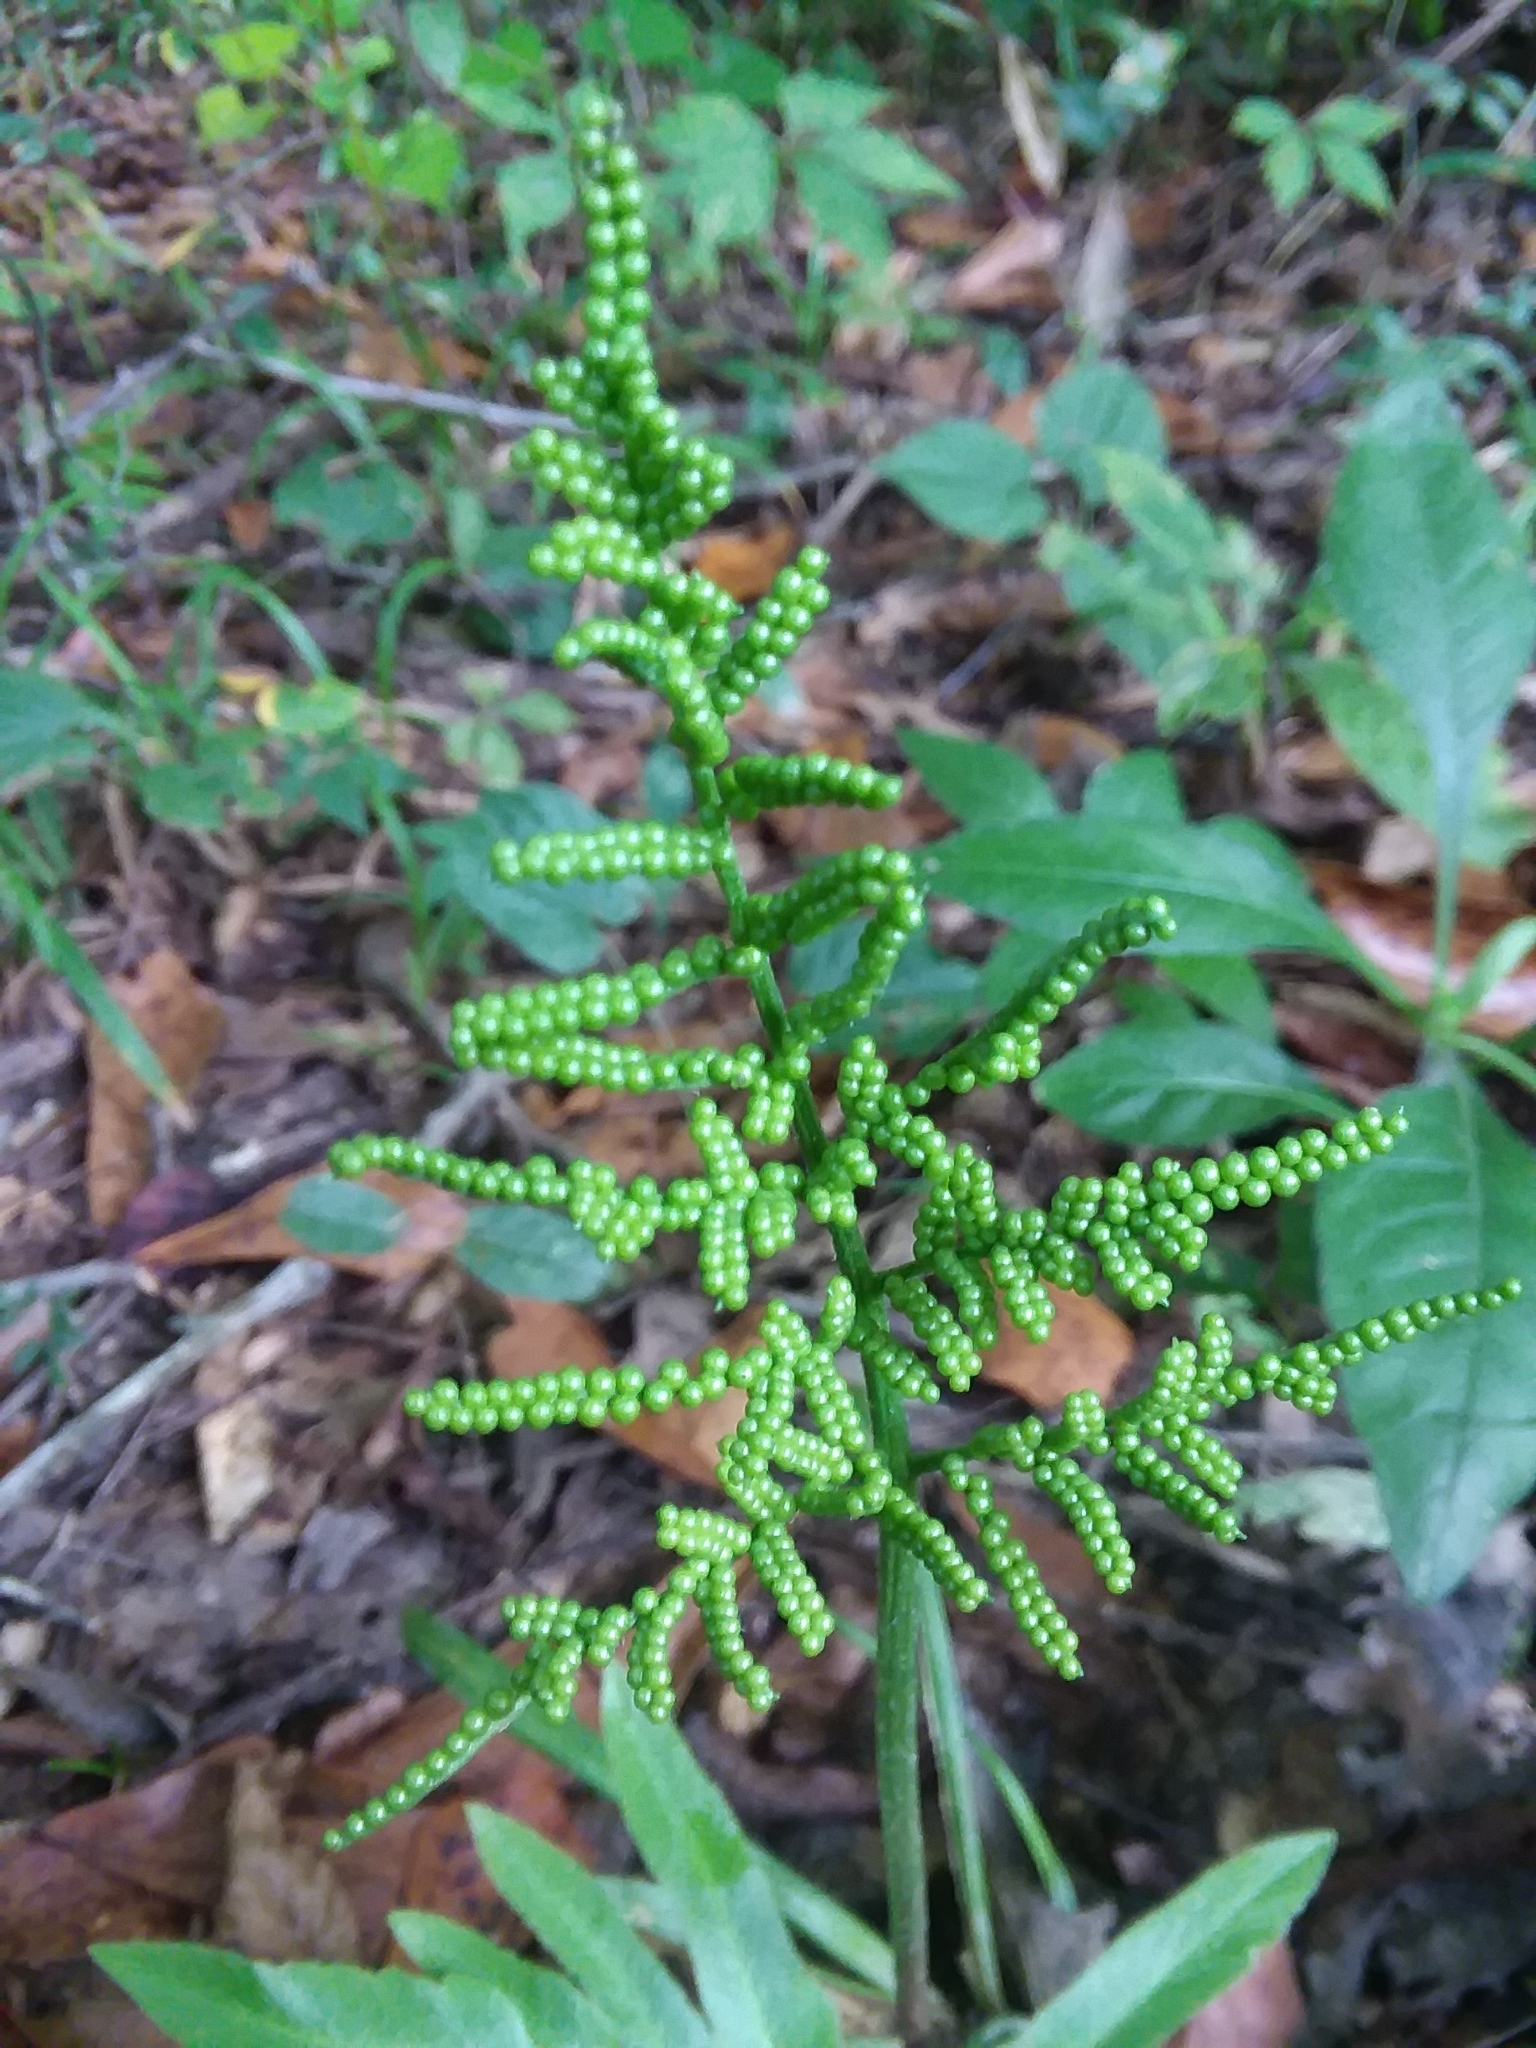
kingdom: Plantae
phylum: Tracheophyta
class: Polypodiopsida
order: Ophioglossales
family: Ophioglossaceae
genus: Sceptridium
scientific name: Sceptridium biternatum
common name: Sparse-lobed grapefern
